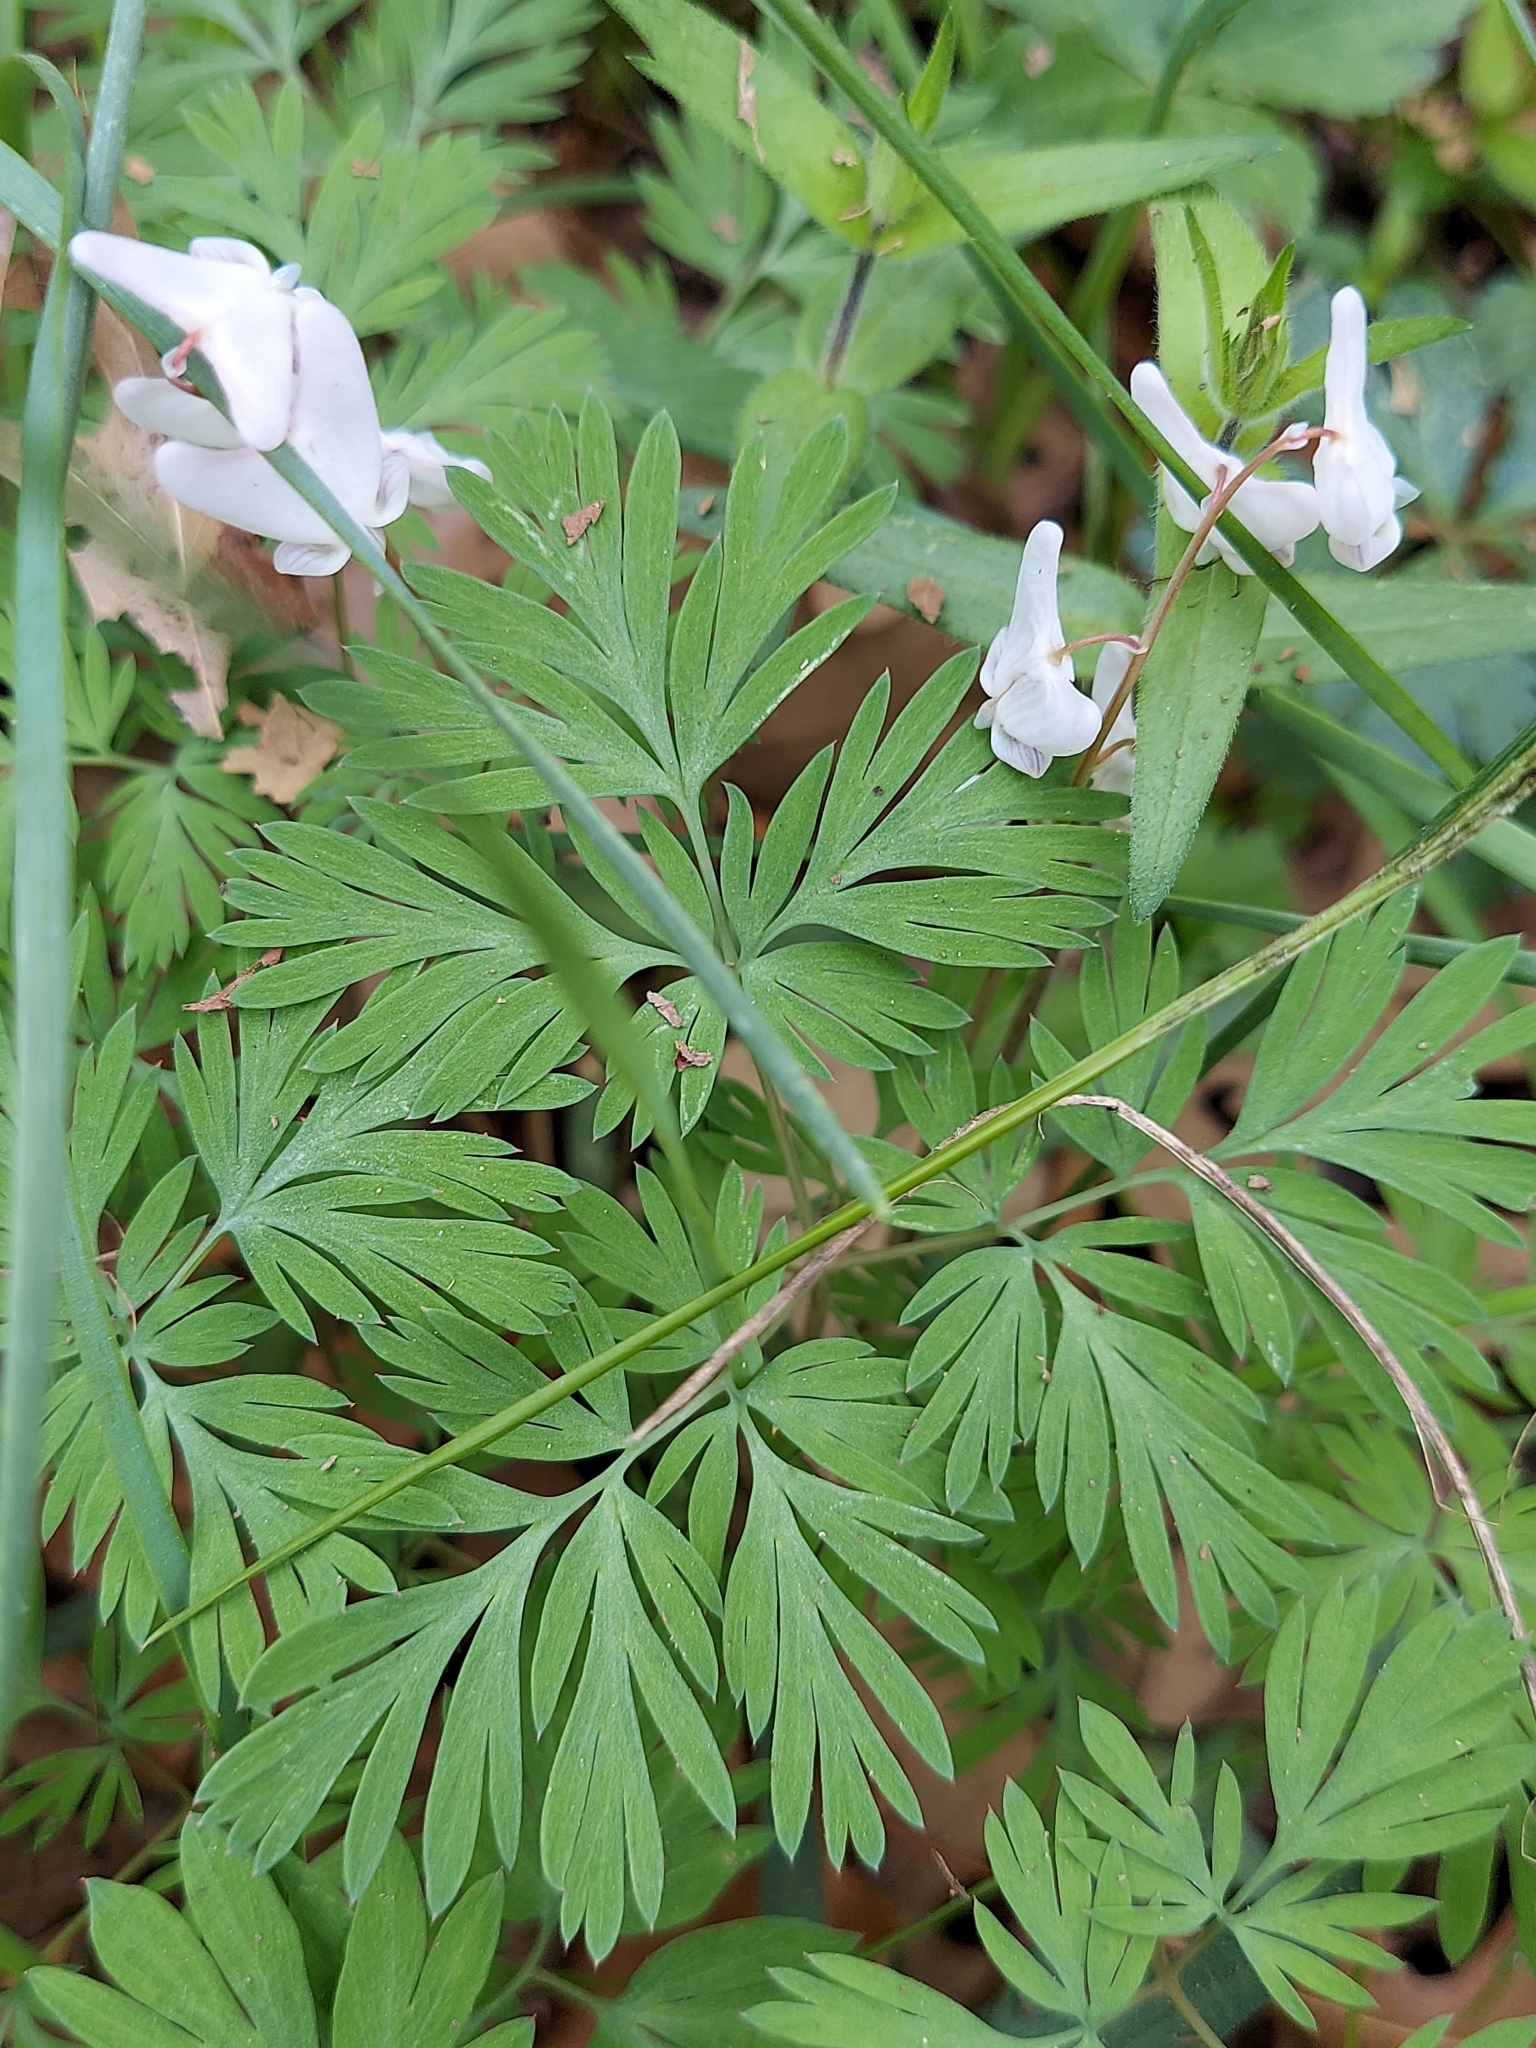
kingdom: Plantae
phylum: Tracheophyta
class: Magnoliopsida
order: Ranunculales
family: Papaveraceae
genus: Dicentra
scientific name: Dicentra cucullaria
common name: Dutchman's breeches
